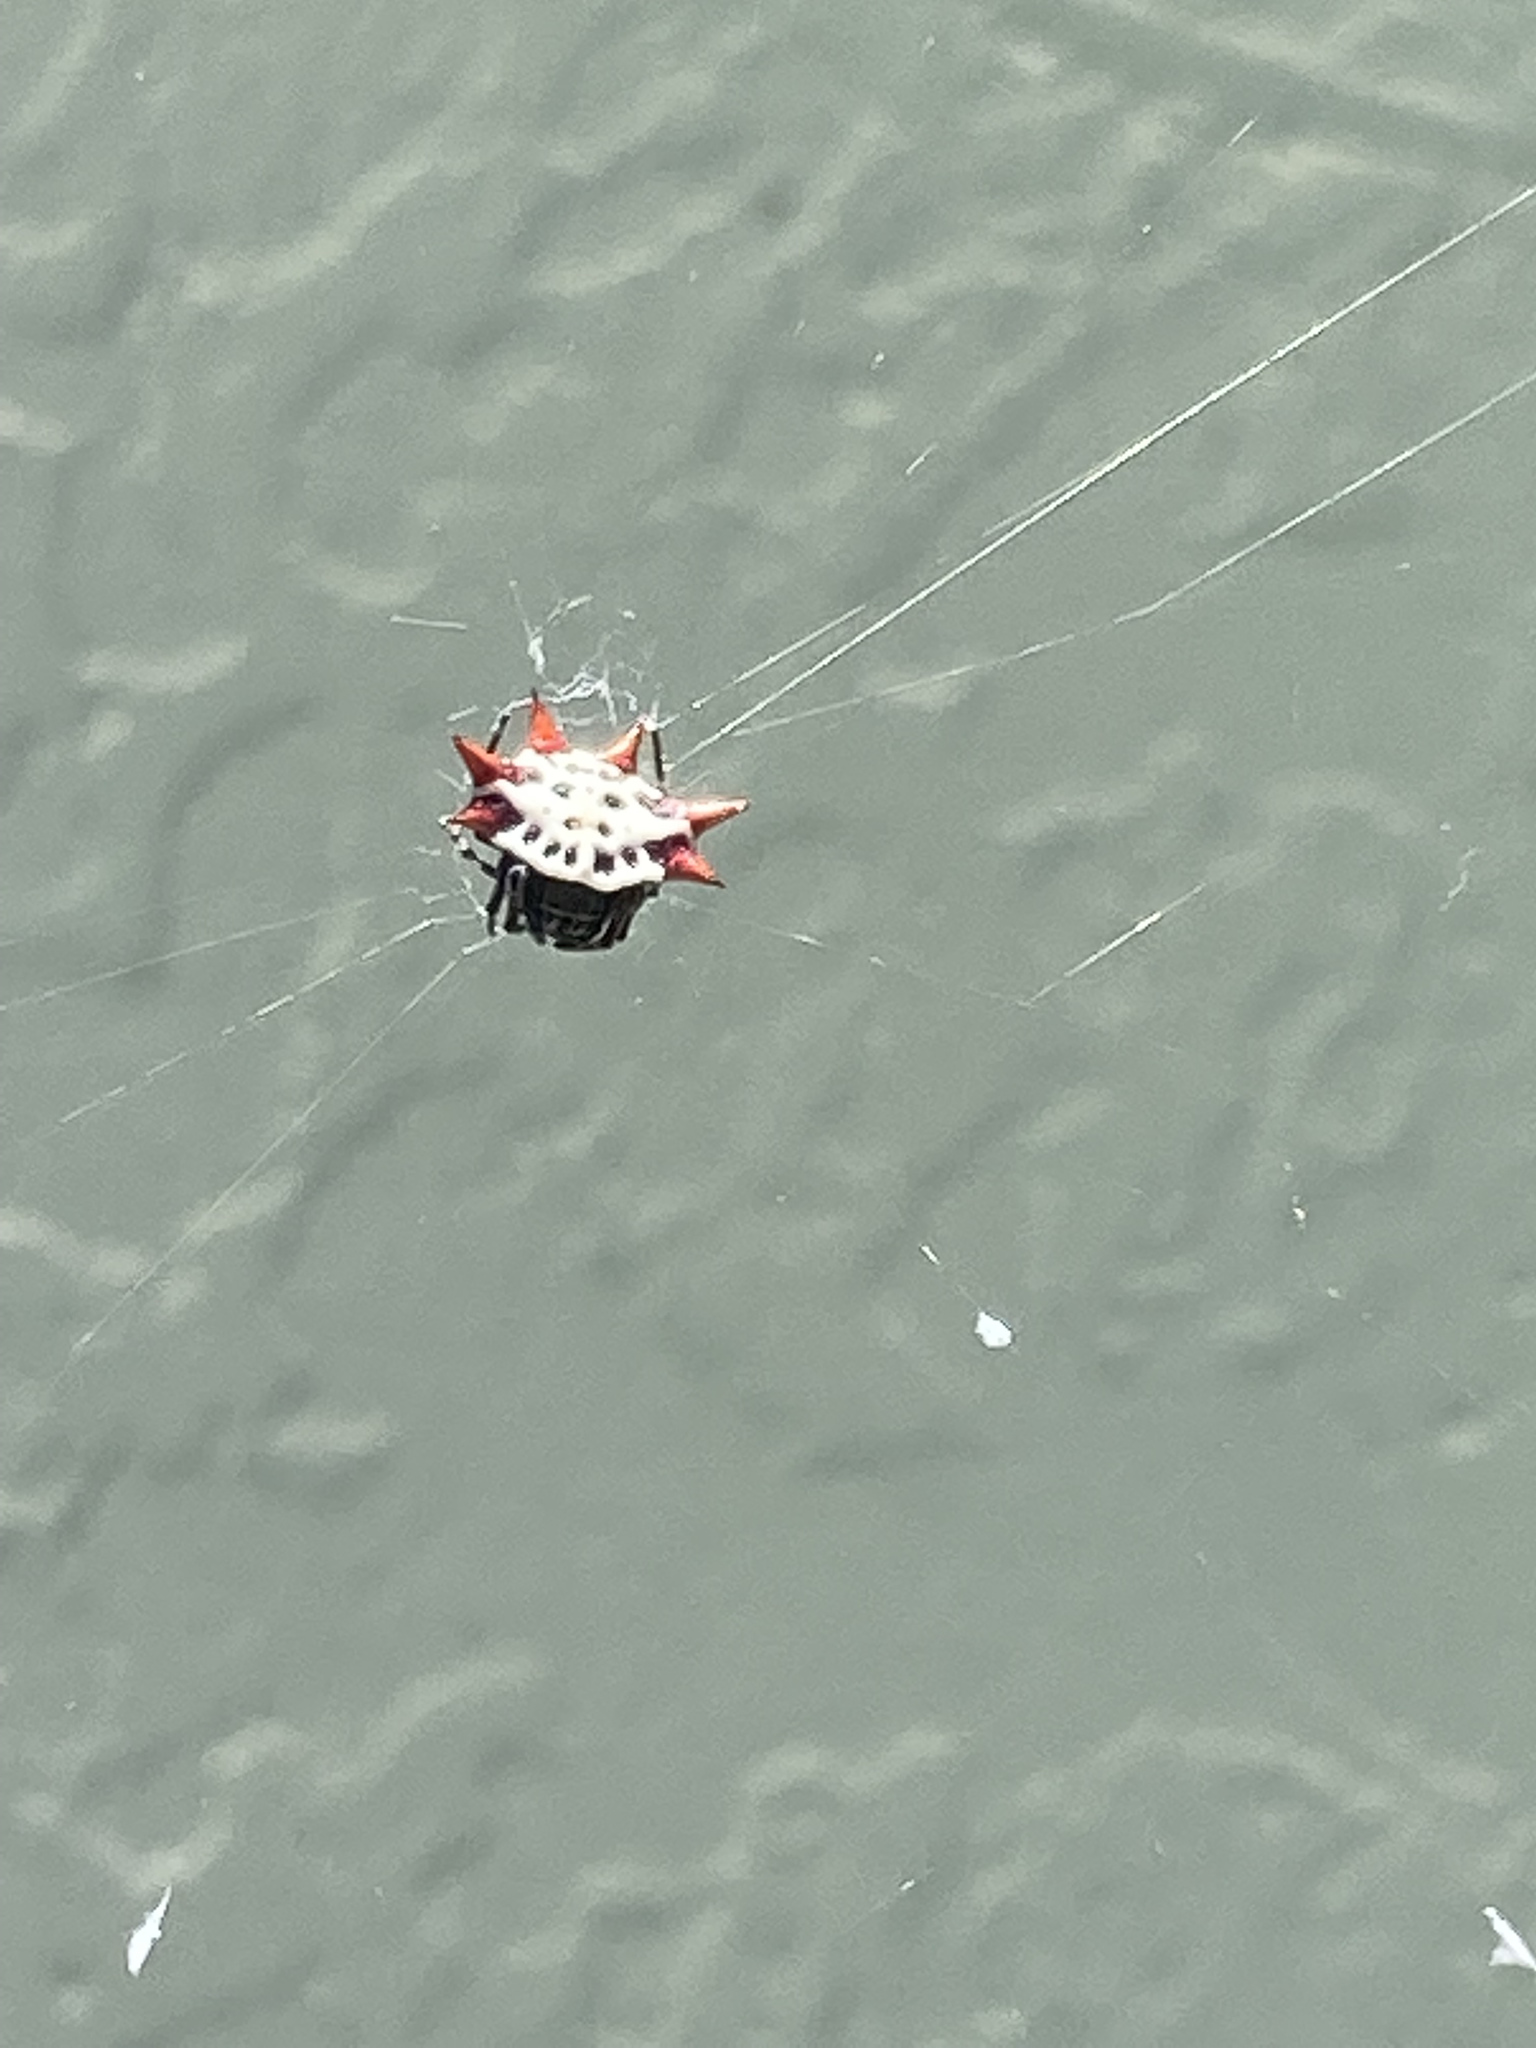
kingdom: Animalia
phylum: Arthropoda
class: Arachnida
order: Araneae
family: Araneidae
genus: Gasteracantha
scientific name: Gasteracantha cancriformis
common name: Orb weavers
